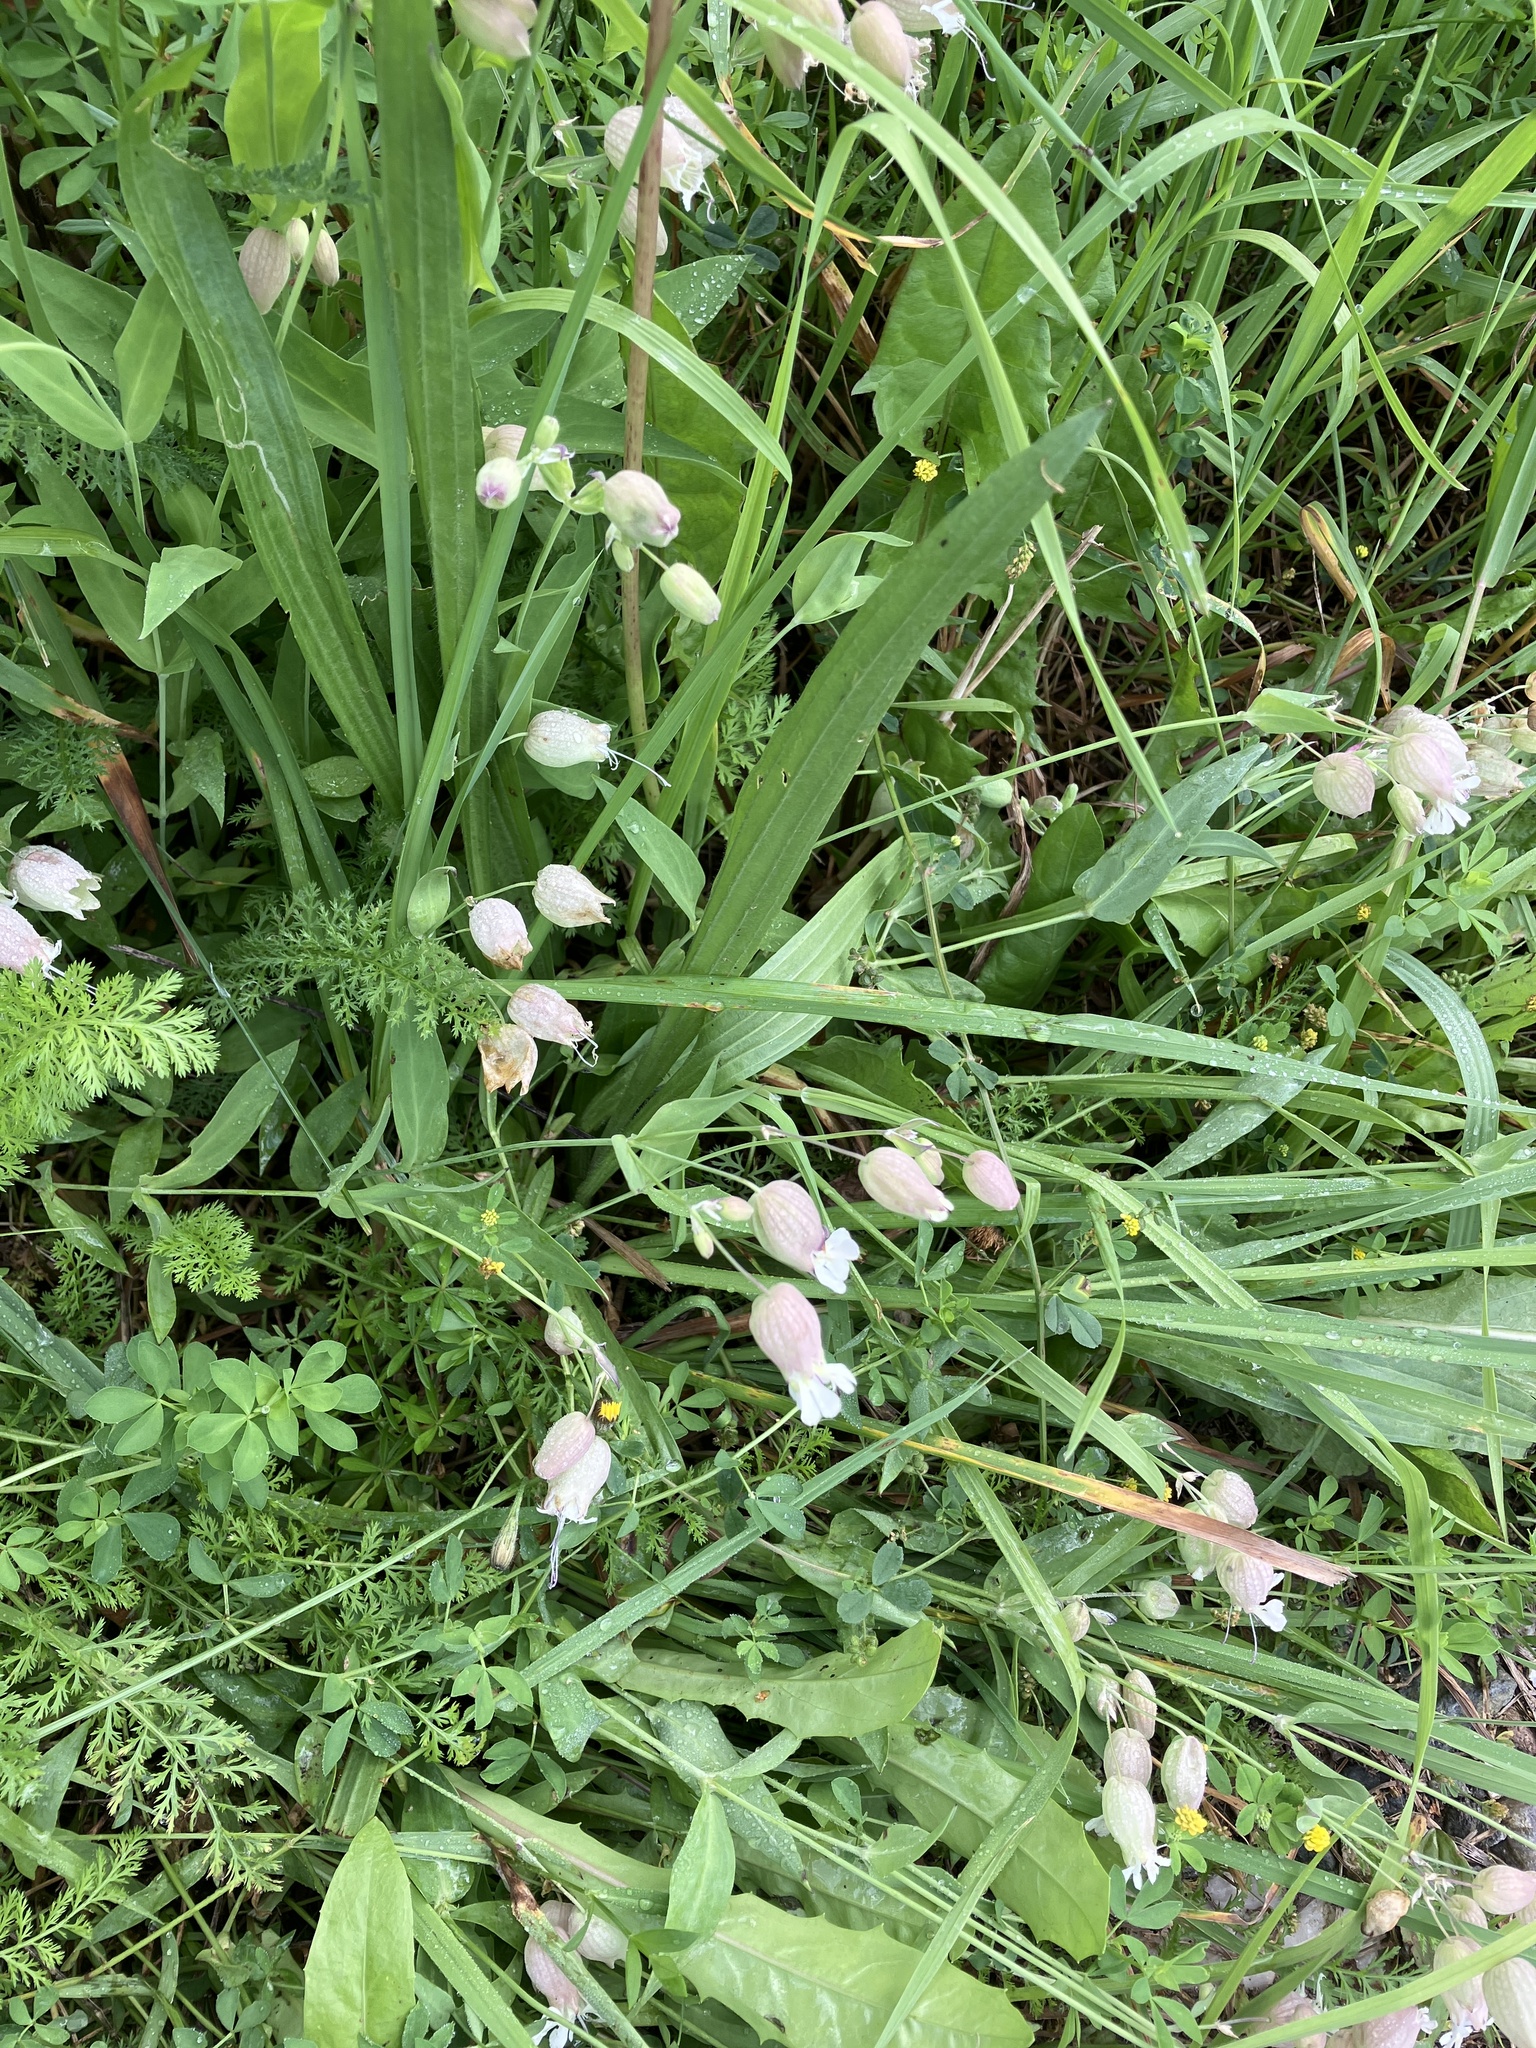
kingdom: Plantae
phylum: Tracheophyta
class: Magnoliopsida
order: Caryophyllales
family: Caryophyllaceae
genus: Silene
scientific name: Silene vulgaris
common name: Bladder campion
